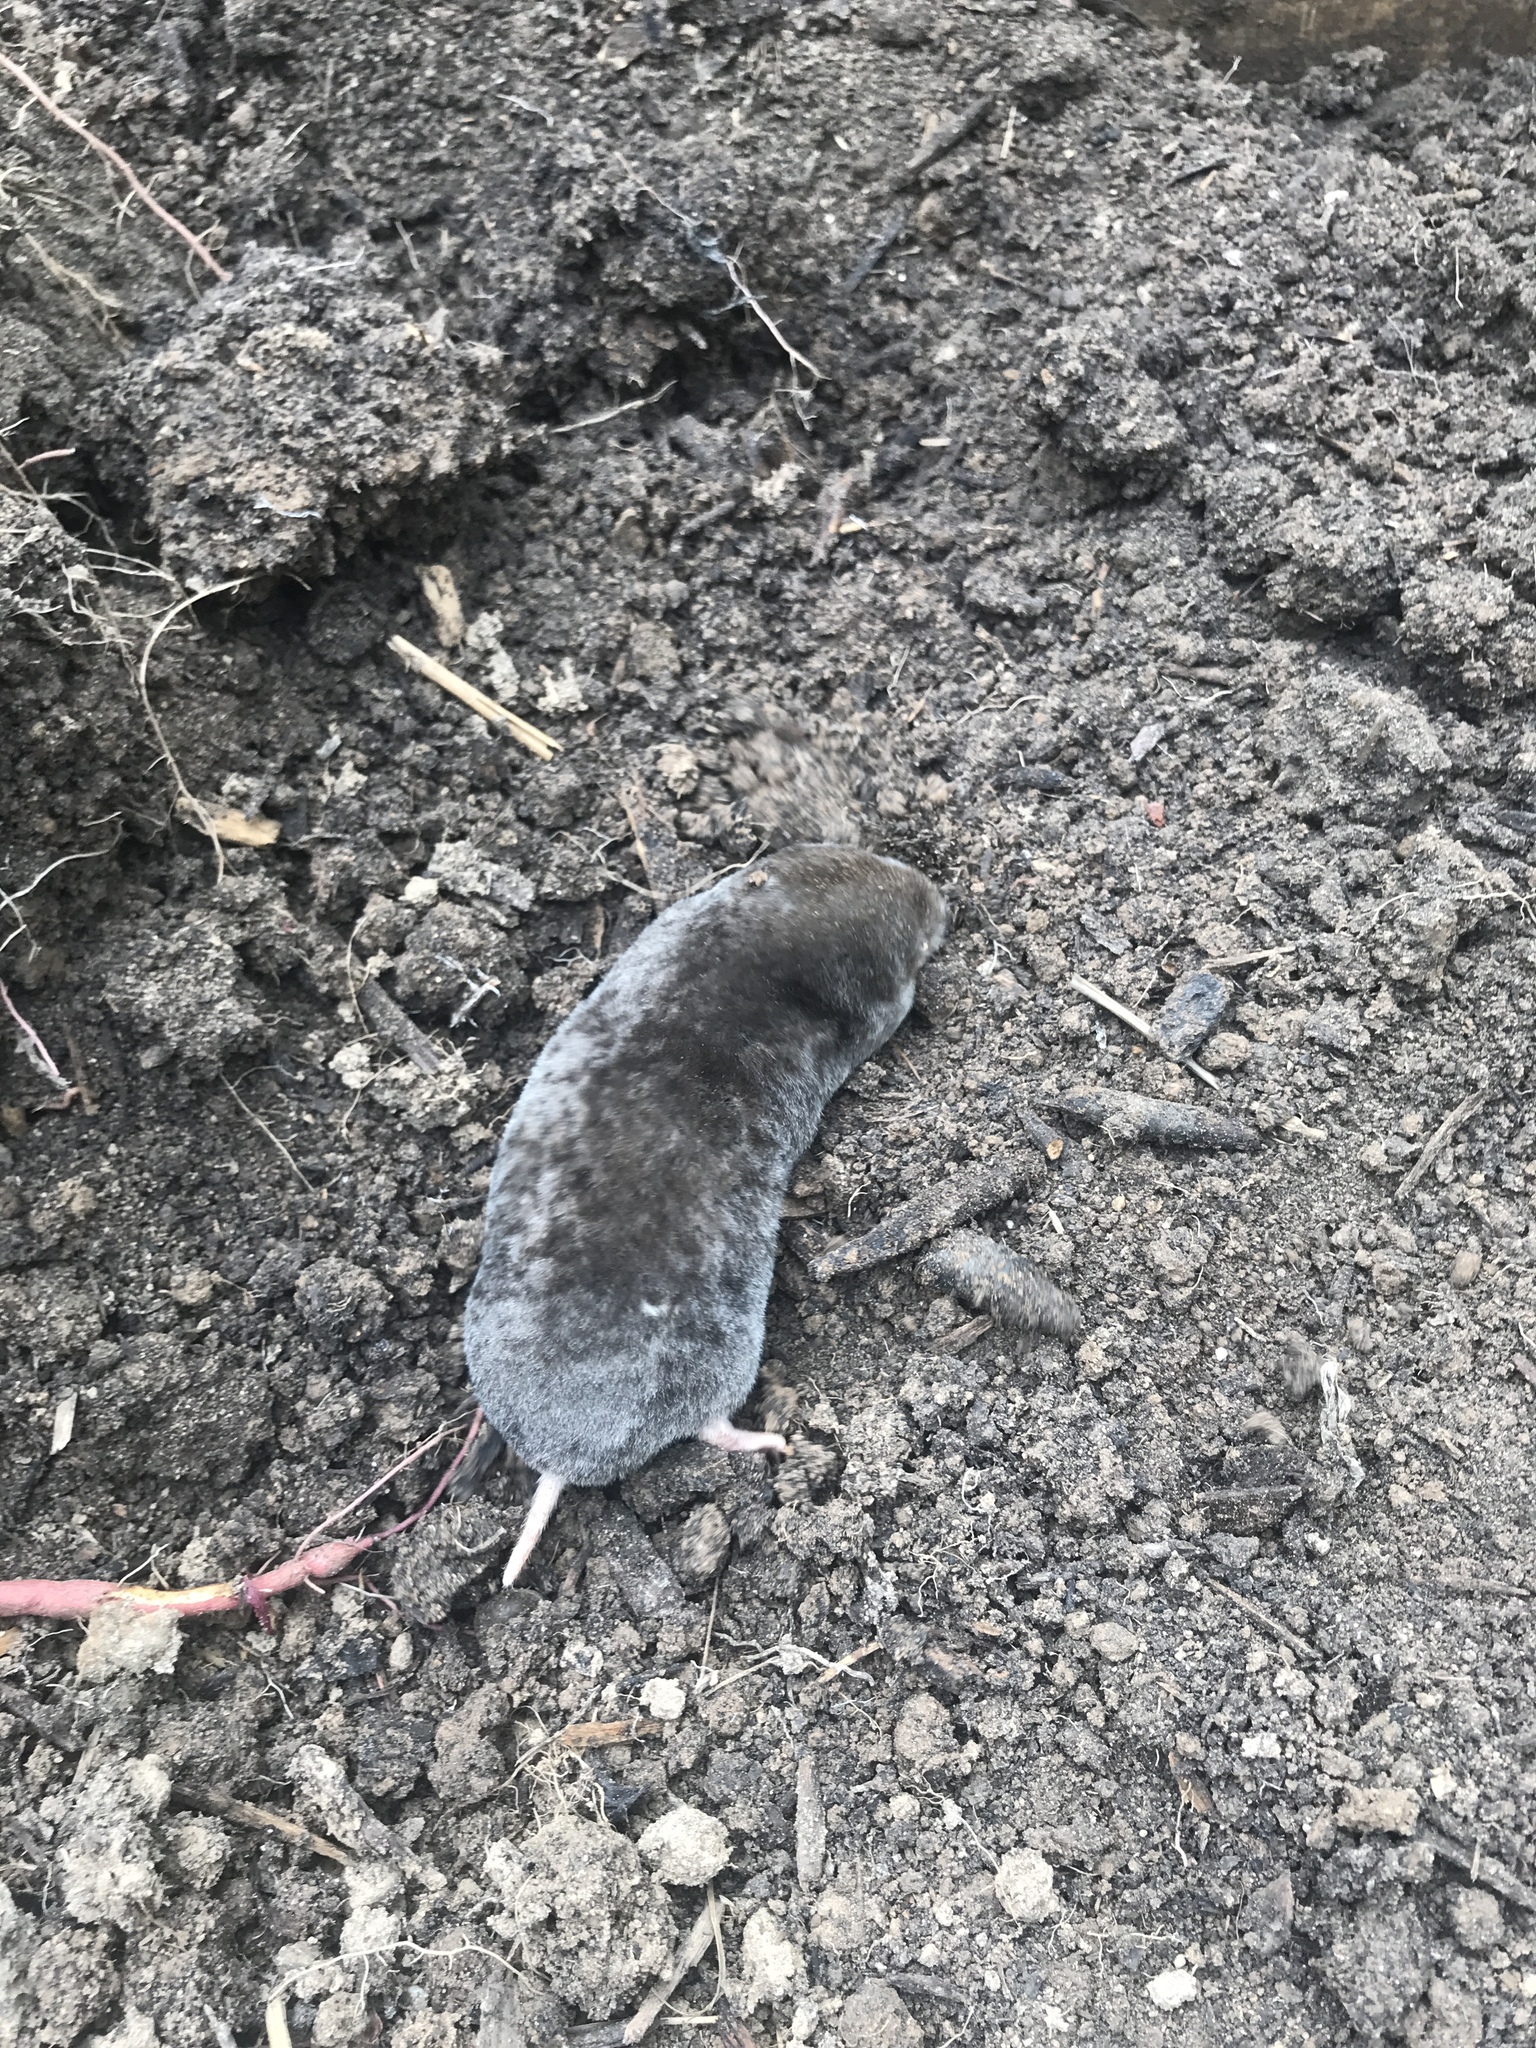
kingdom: Animalia
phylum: Chordata
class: Mammalia
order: Soricomorpha
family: Talpidae
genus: Scalopus
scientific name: Scalopus aquaticus
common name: Eastern mole
